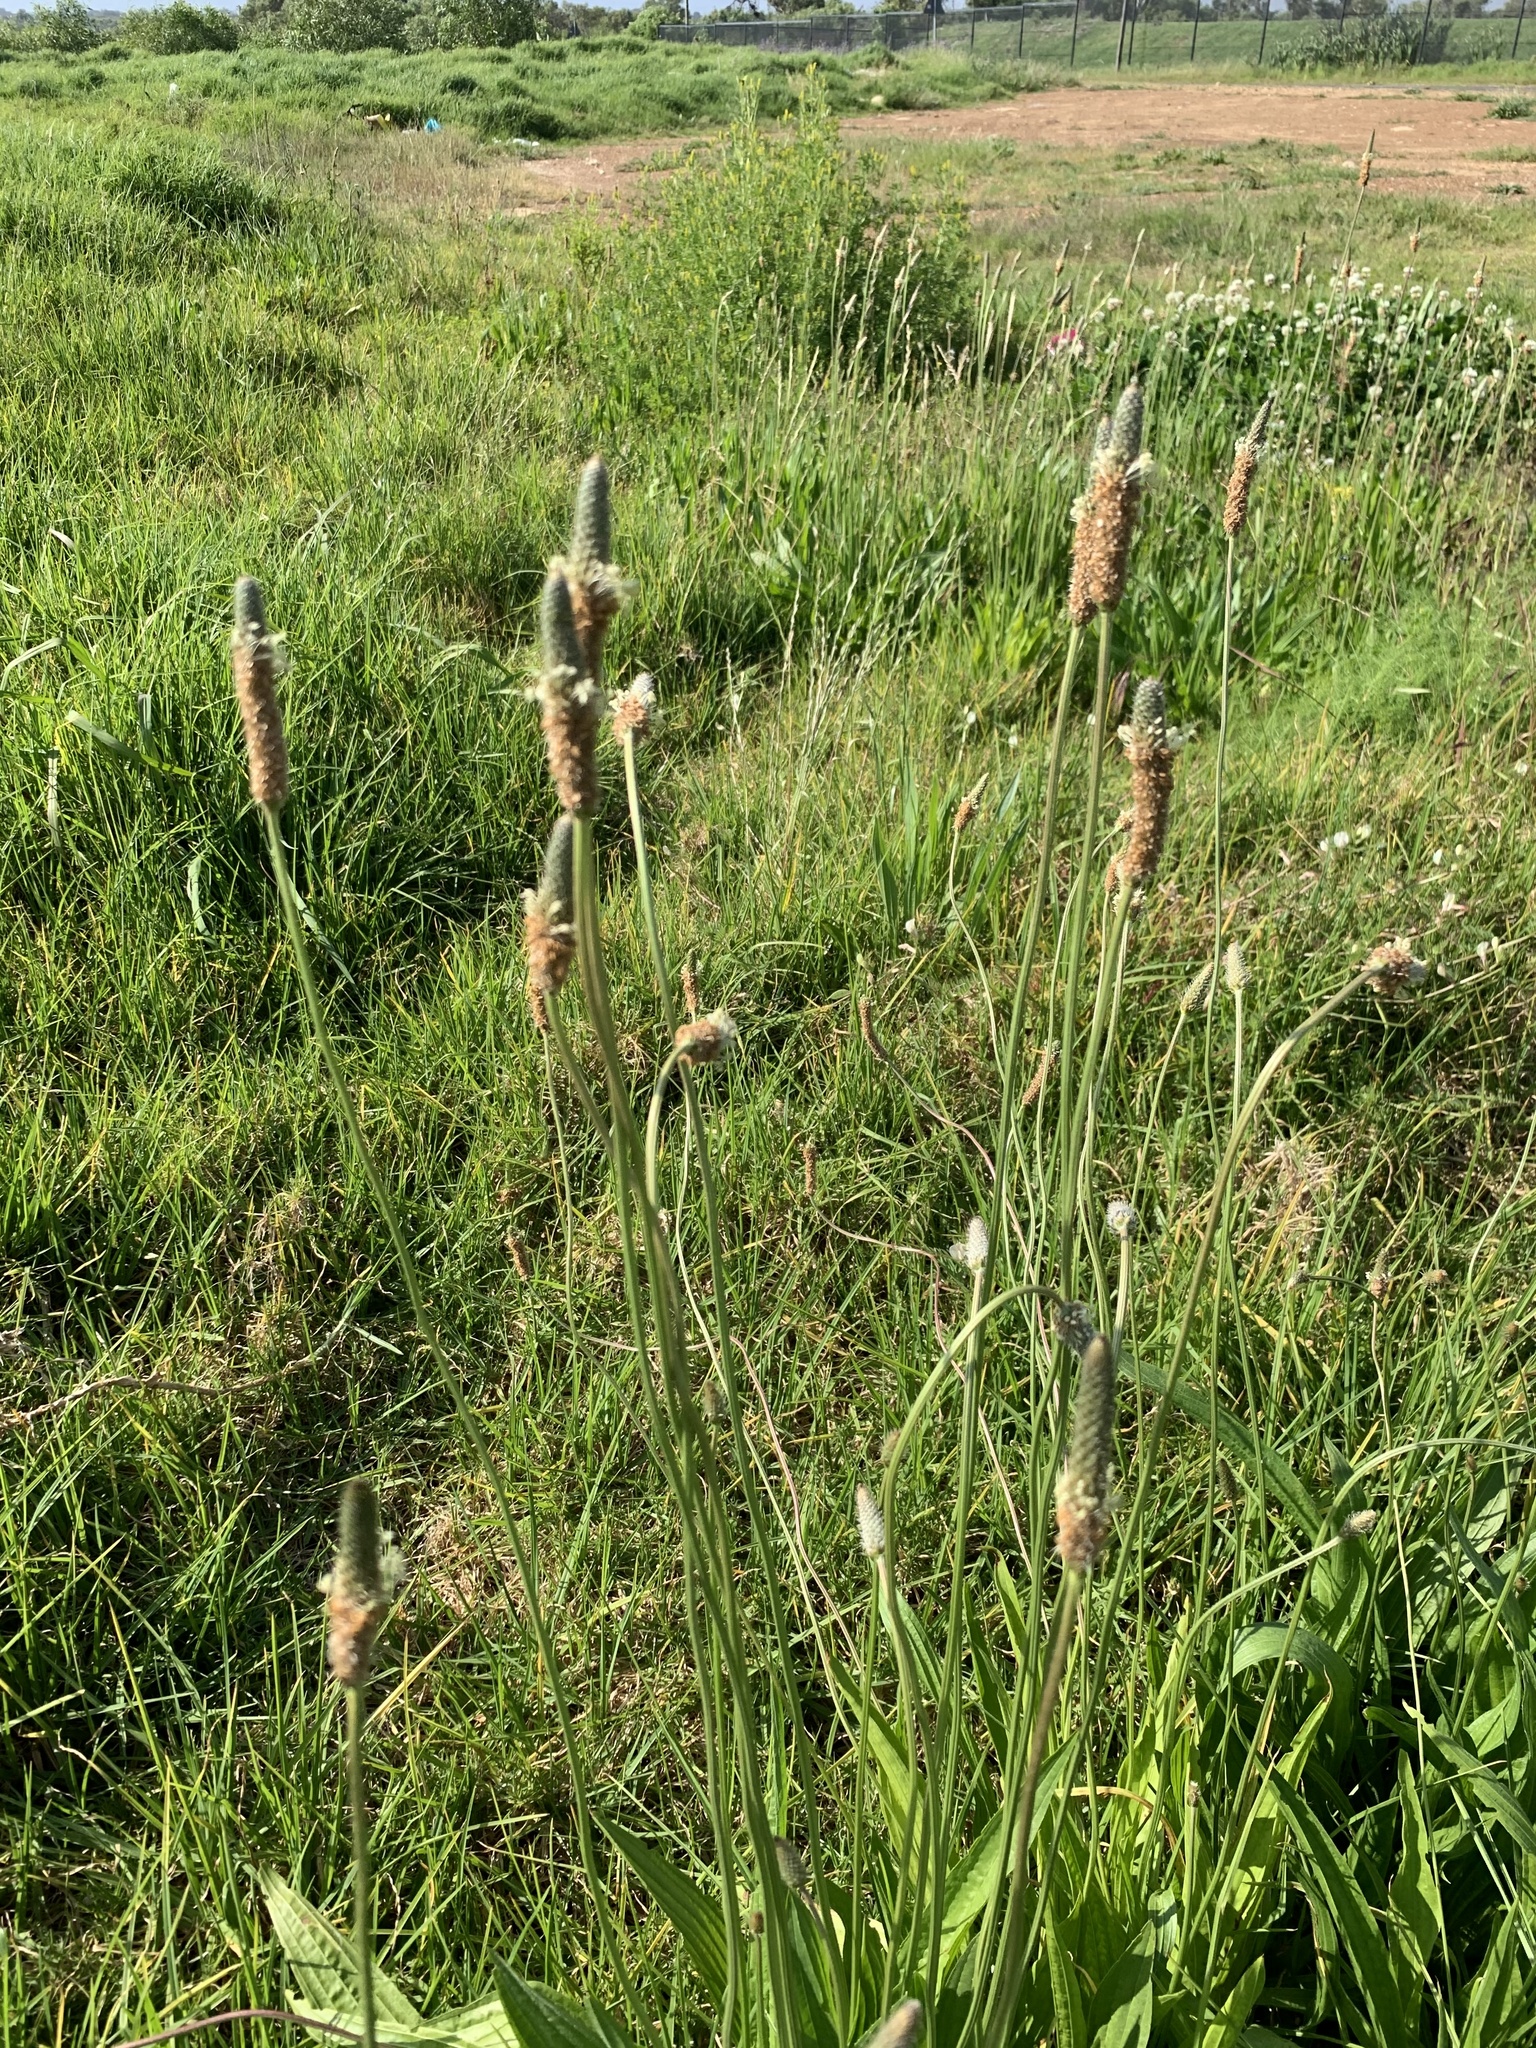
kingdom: Plantae
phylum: Tracheophyta
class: Magnoliopsida
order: Lamiales
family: Plantaginaceae
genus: Plantago
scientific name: Plantago lanceolata
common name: Ribwort plantain
